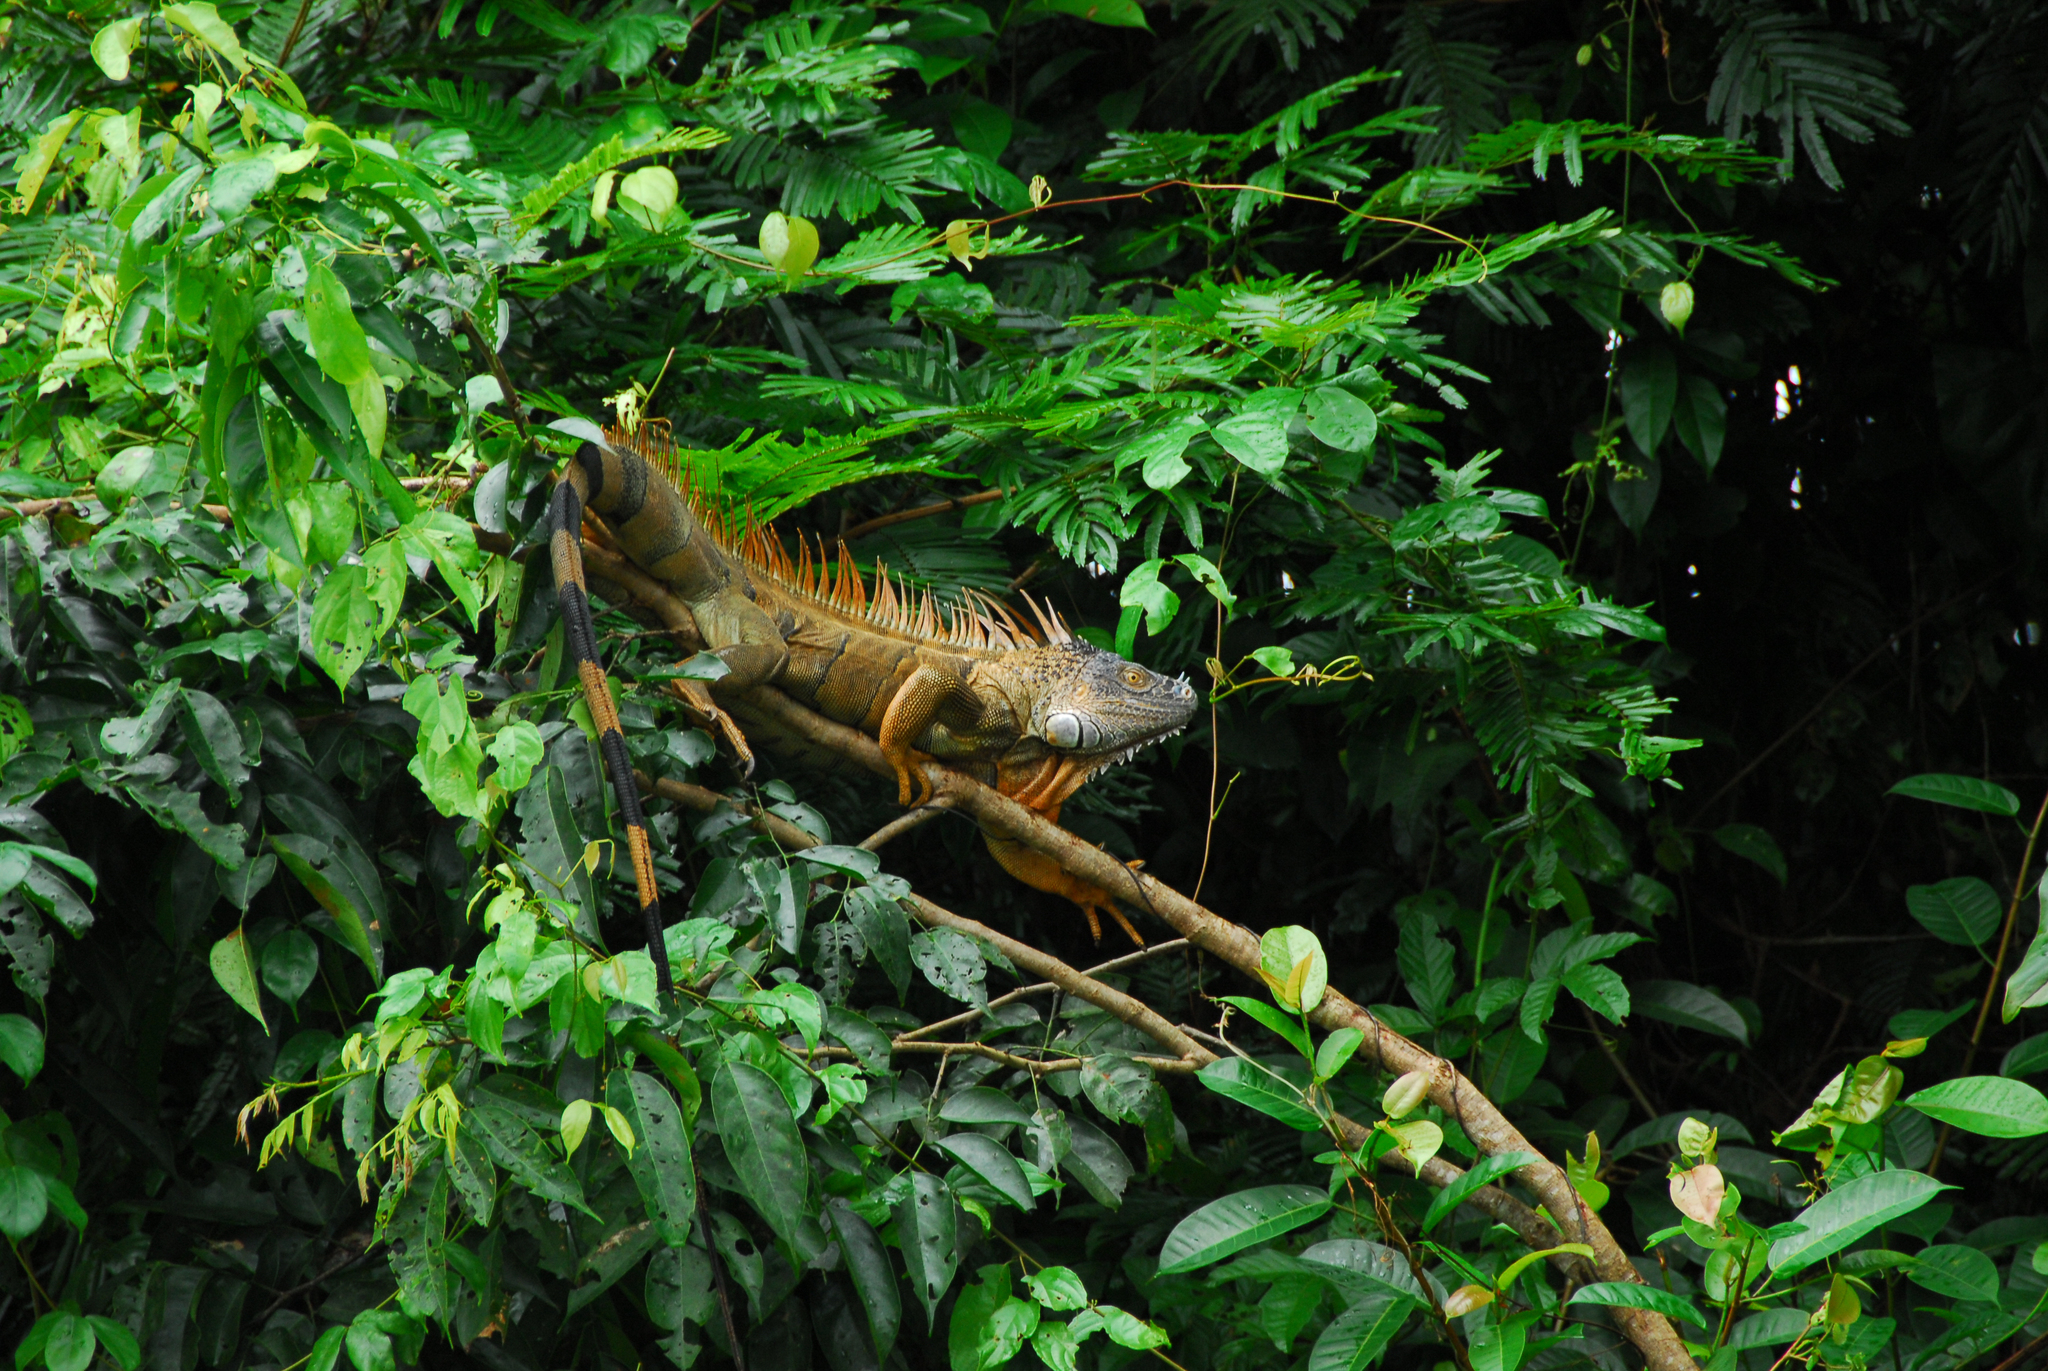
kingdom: Animalia
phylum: Chordata
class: Squamata
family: Iguanidae
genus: Iguana
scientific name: Iguana iguana
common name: Green iguana
